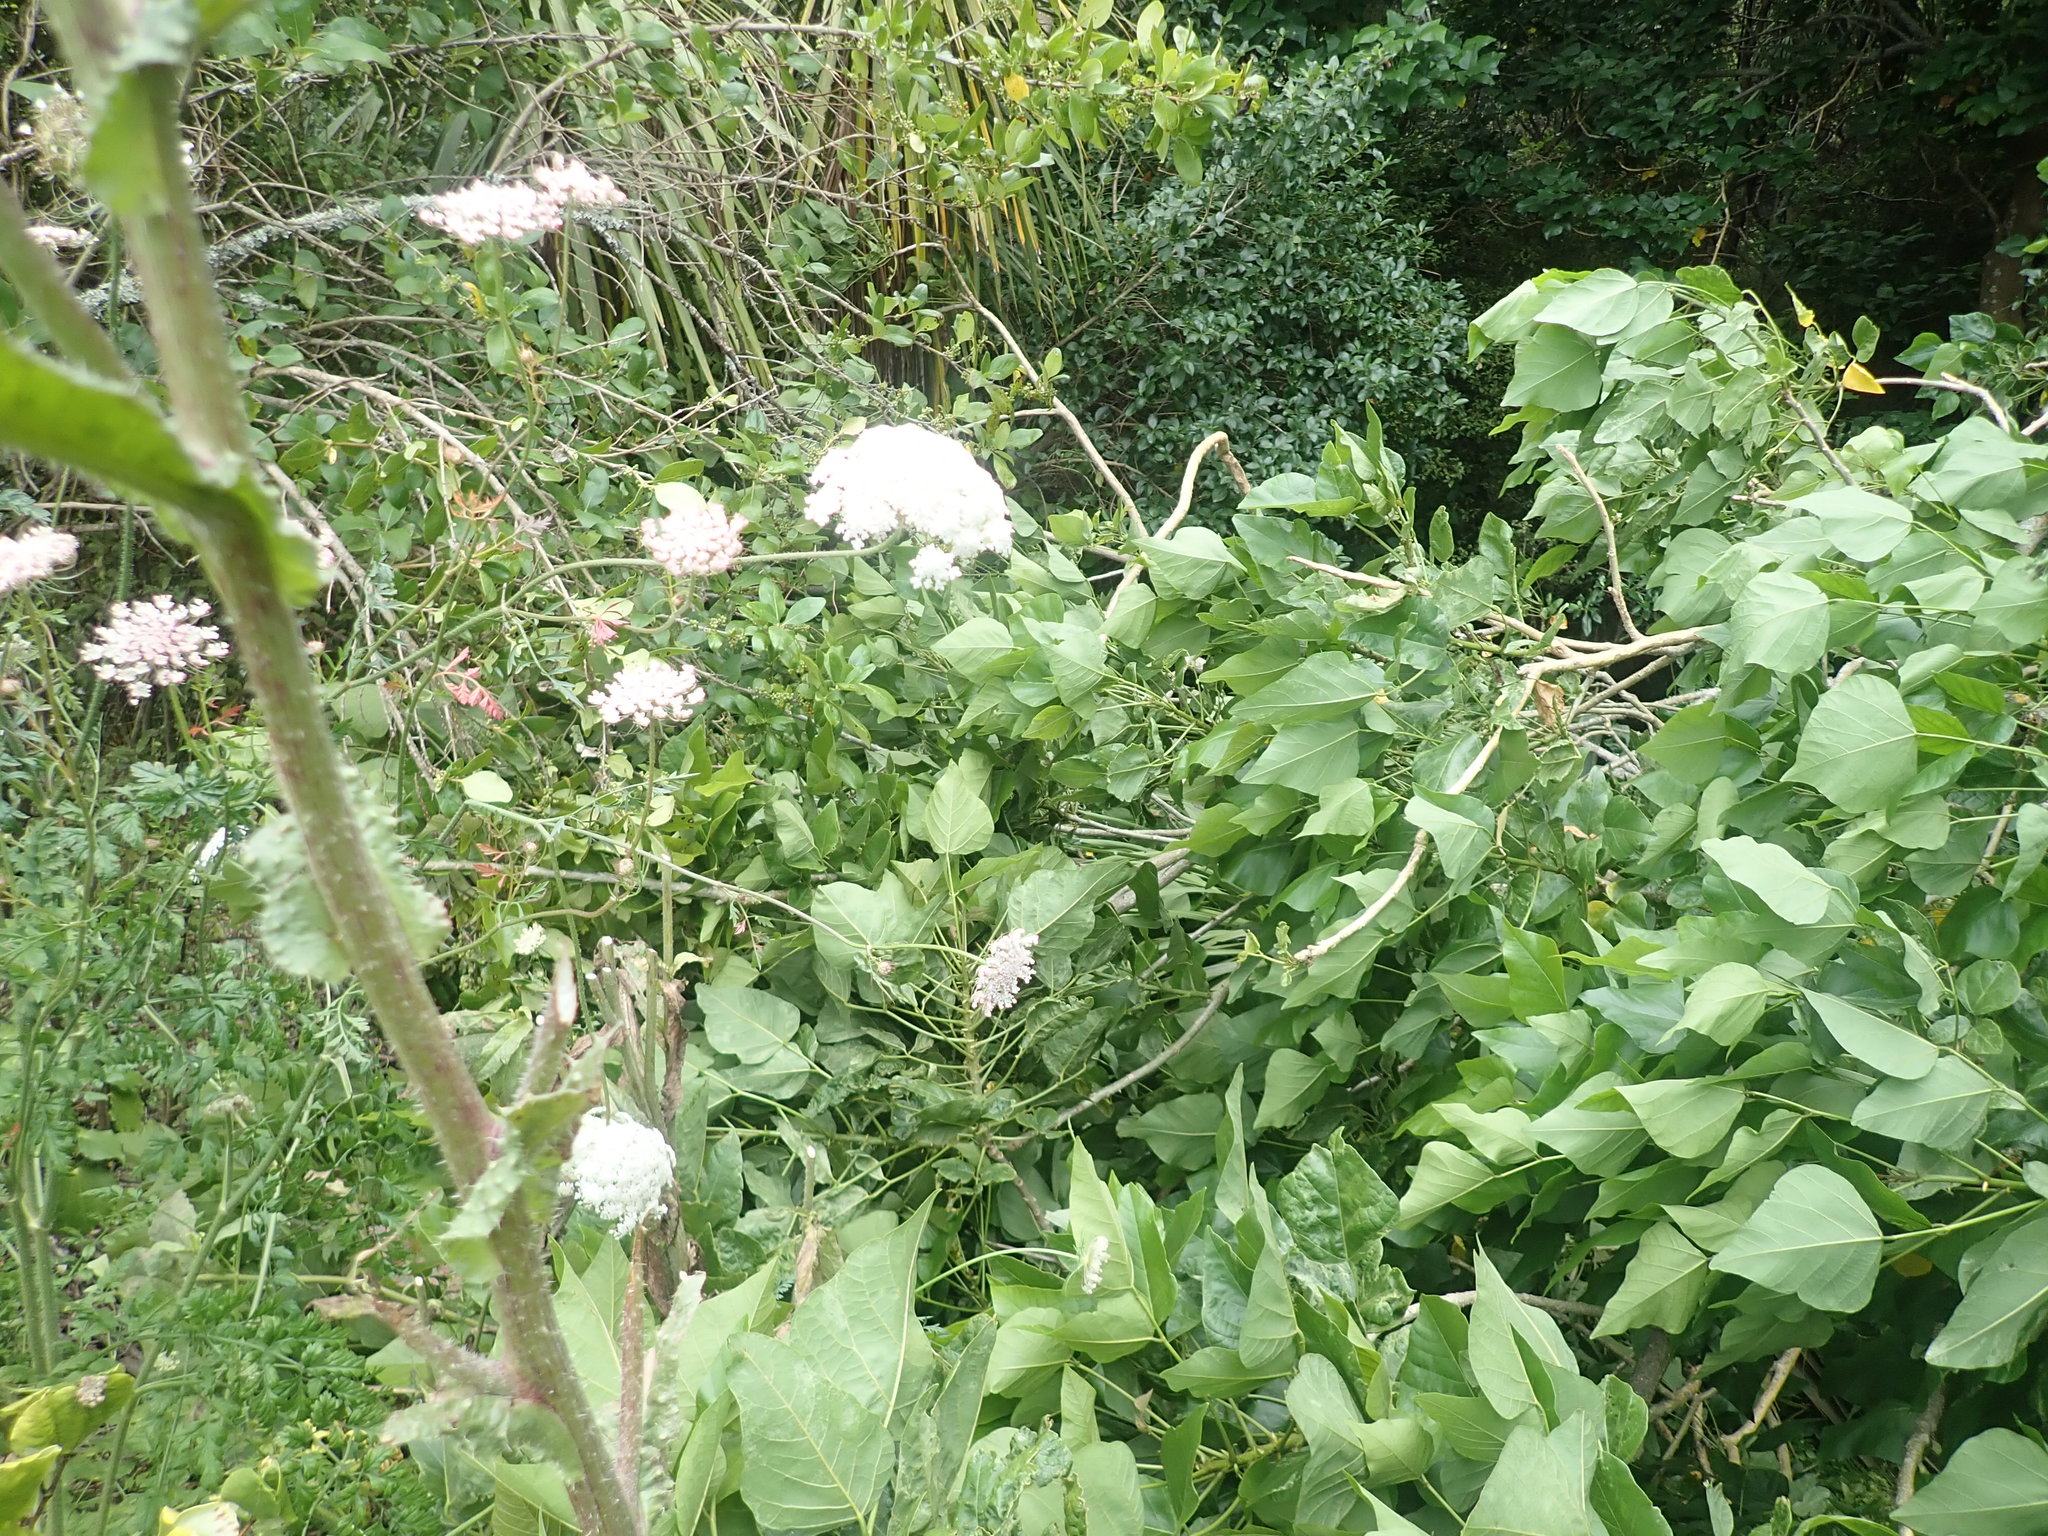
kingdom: Plantae
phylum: Tracheophyta
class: Magnoliopsida
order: Gentianales
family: Rubiaceae
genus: Coprosma
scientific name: Coprosma robusta
